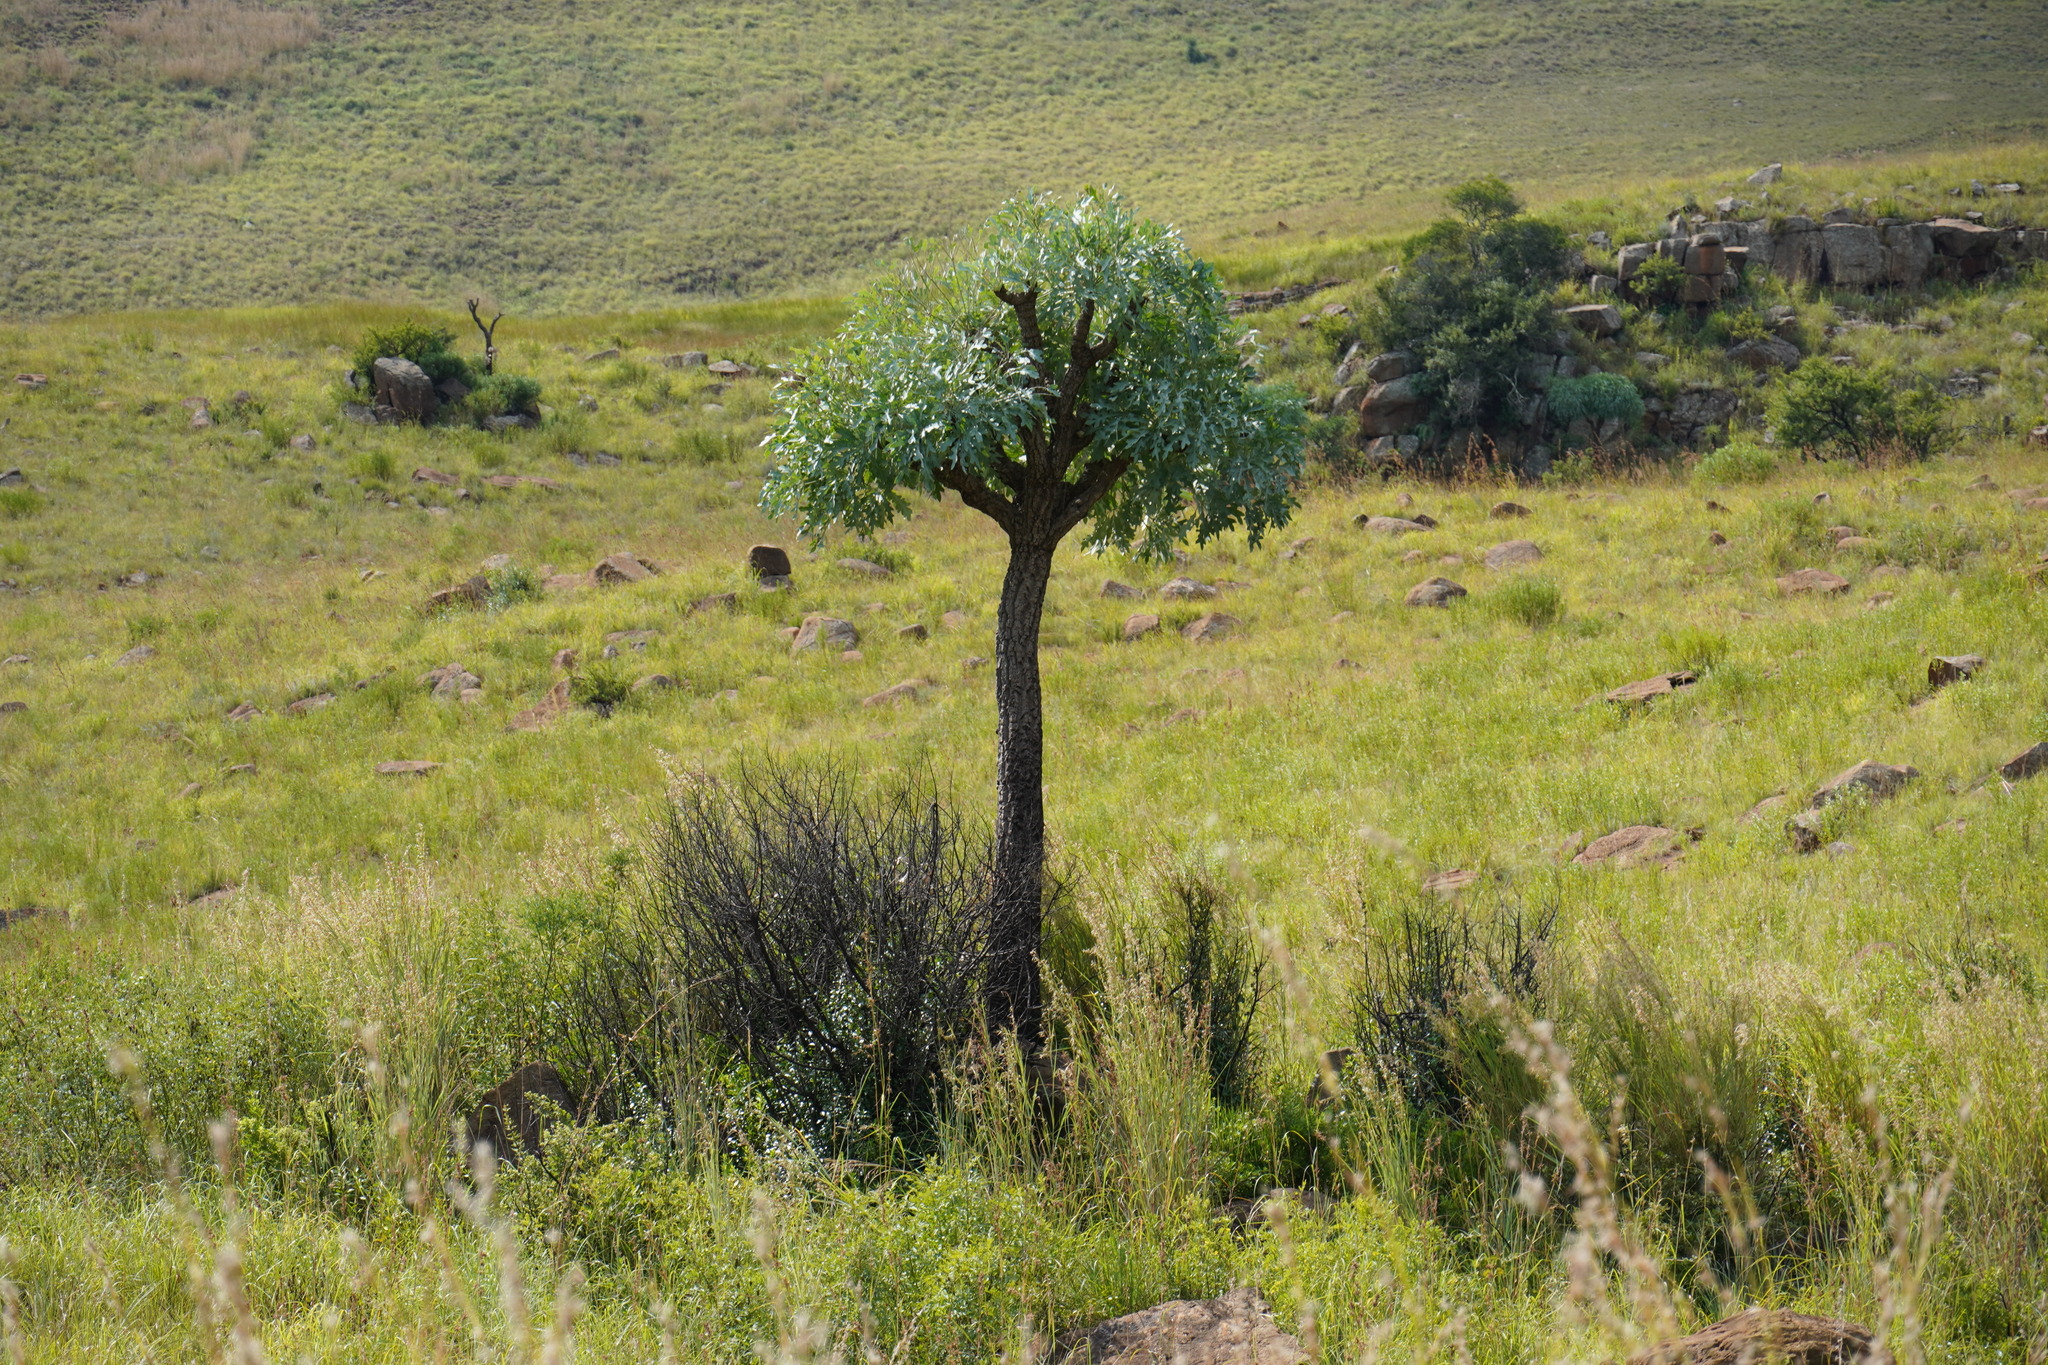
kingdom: Plantae
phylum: Tracheophyta
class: Magnoliopsida
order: Apiales
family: Araliaceae
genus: Cussonia
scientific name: Cussonia paniculata
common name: Cabbagetree
